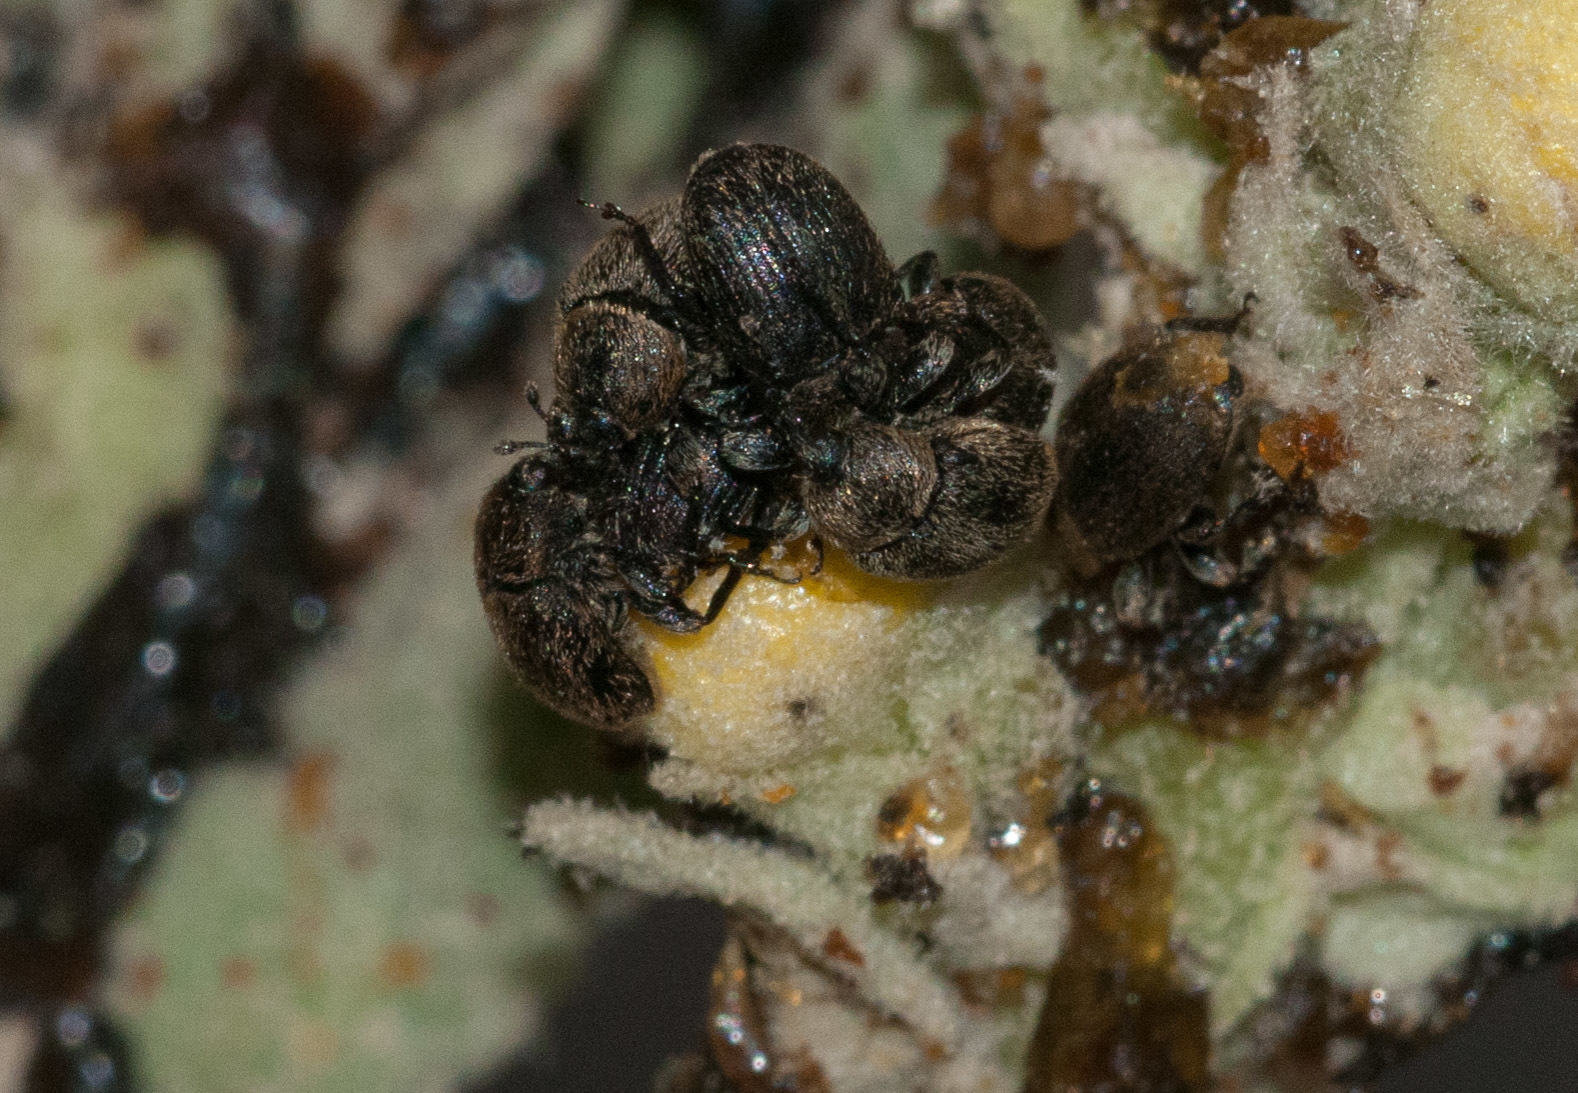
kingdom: Animalia
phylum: Arthropoda
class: Insecta
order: Coleoptera
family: Curculionidae
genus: Rhinusa
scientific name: Rhinusa tetra
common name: Weevil
